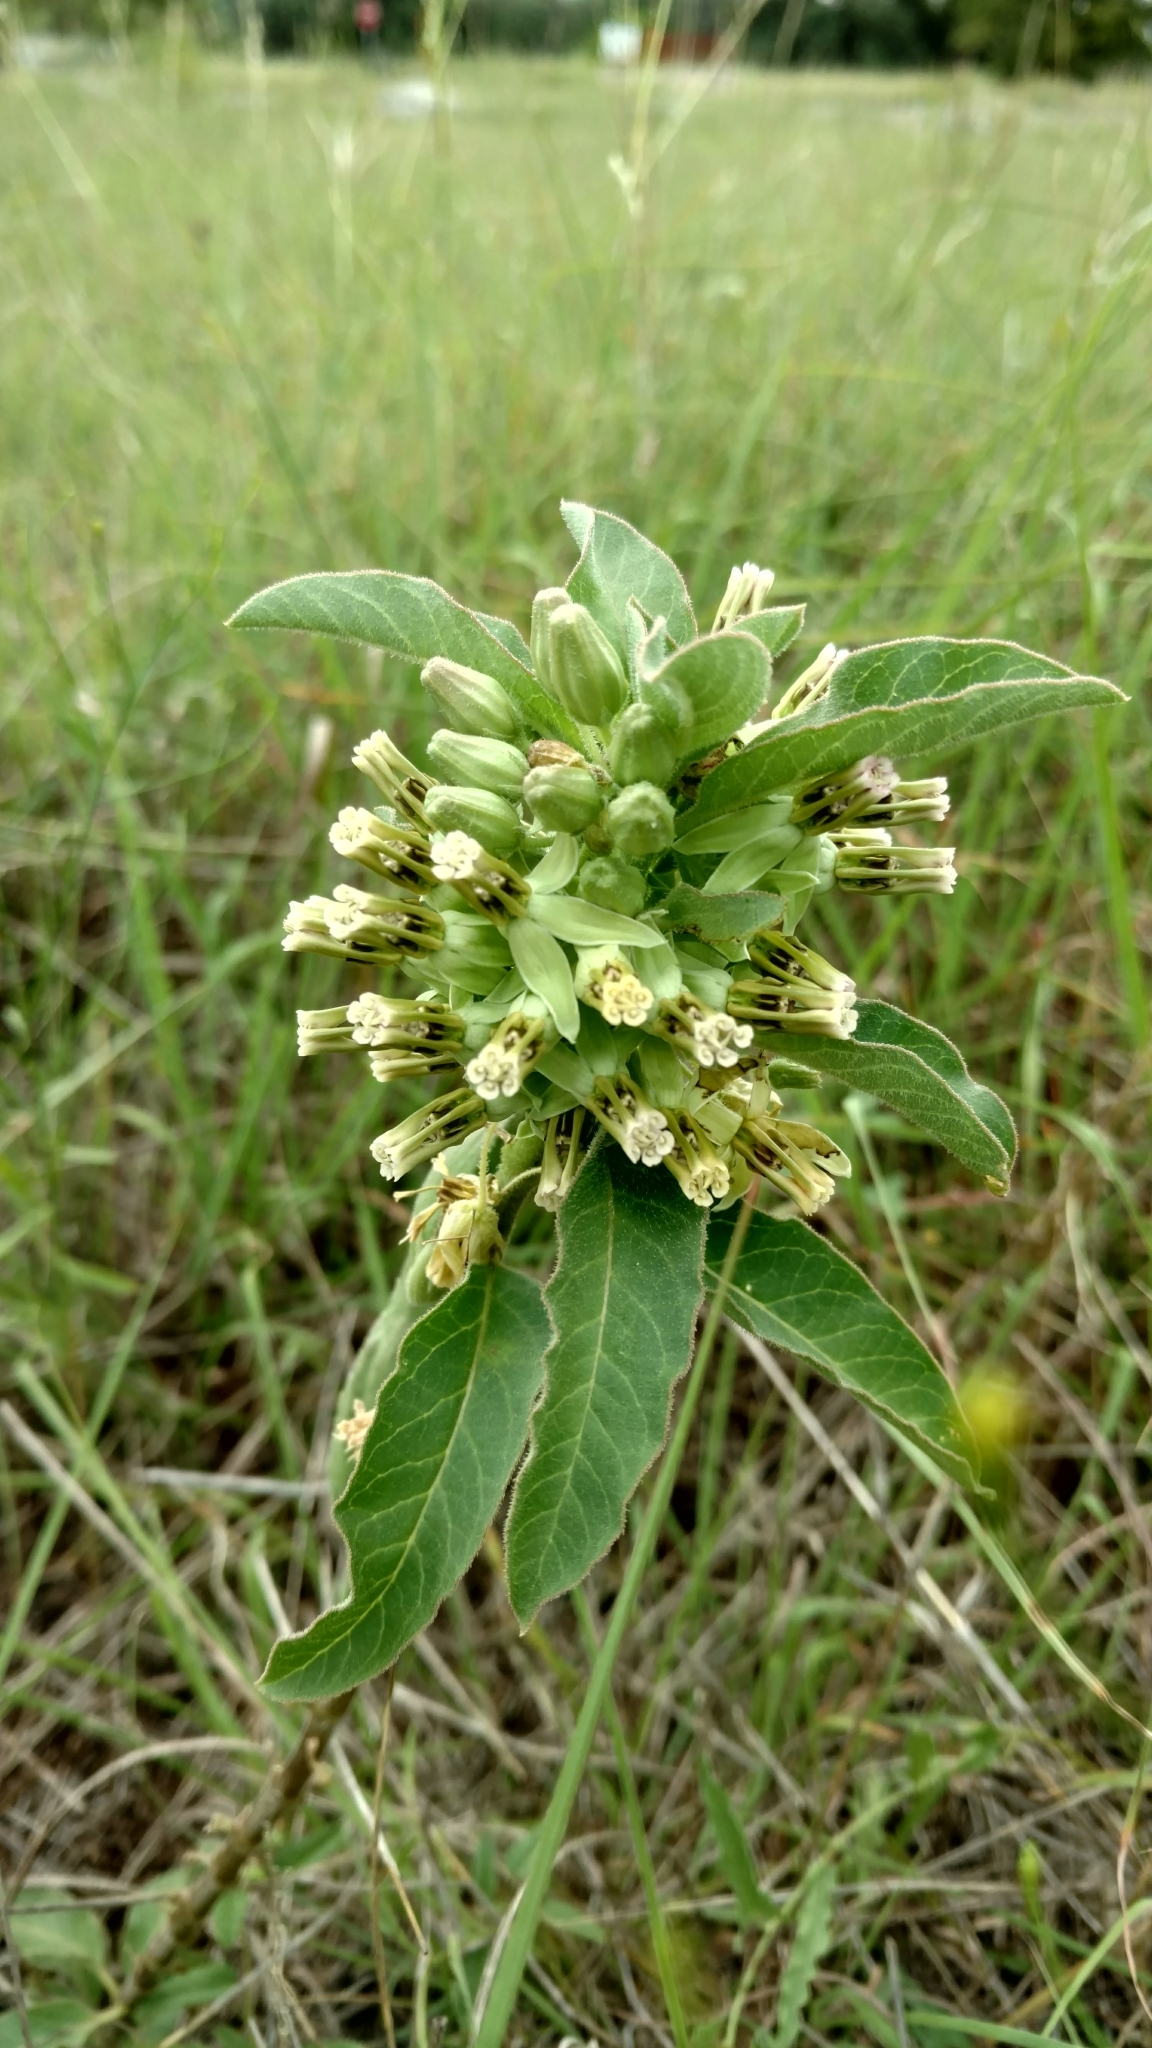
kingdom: Plantae
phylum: Tracheophyta
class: Magnoliopsida
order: Gentianales
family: Apocynaceae
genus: Asclepias
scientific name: Asclepias oenotheroides
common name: Zizotes milkweed
